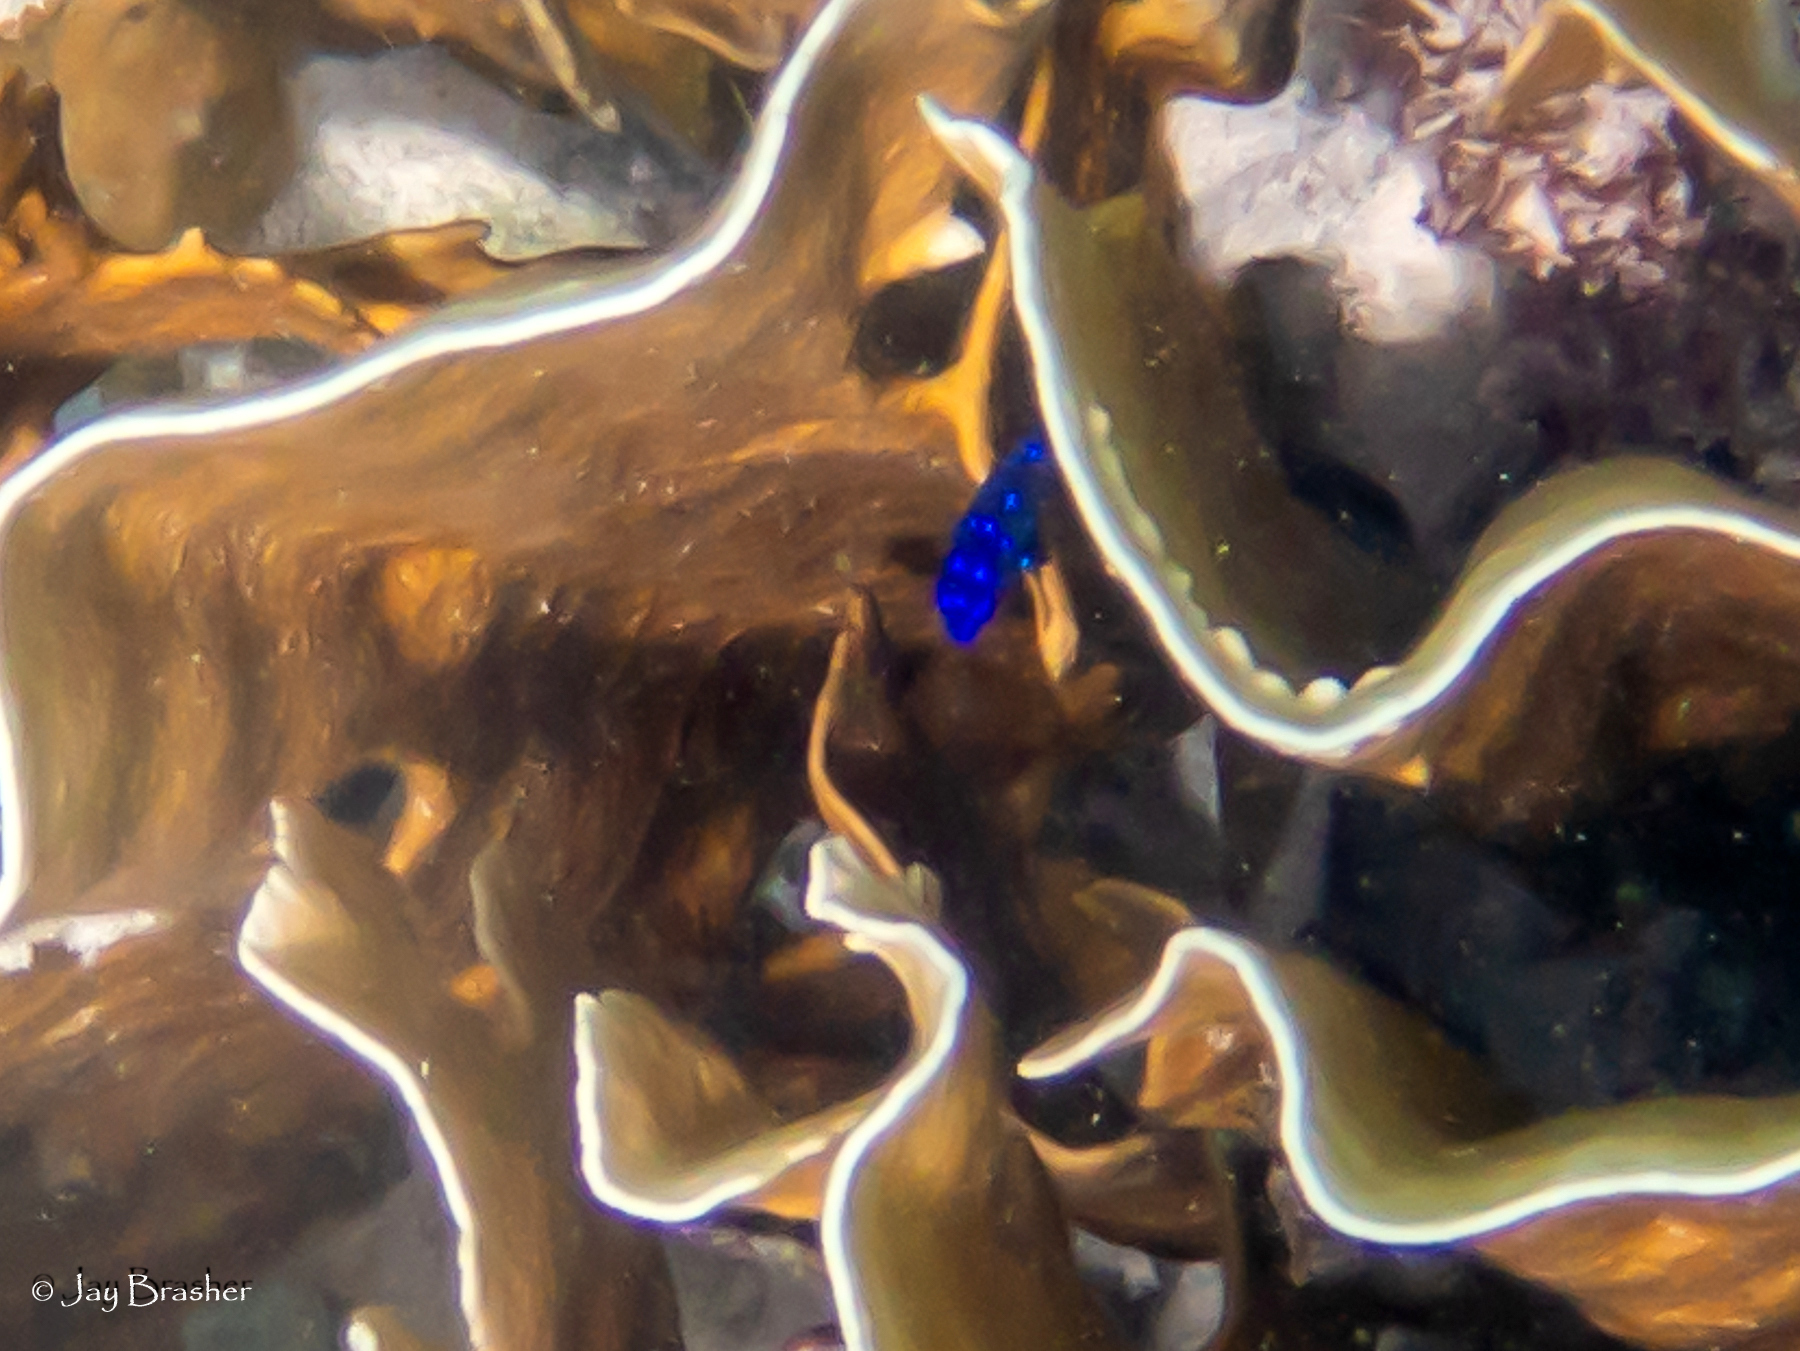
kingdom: Animalia
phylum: Chordata
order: Perciformes
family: Pomacentridae
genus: Microspathodon
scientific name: Microspathodon chrysurus
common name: Yellowtail damselfish
